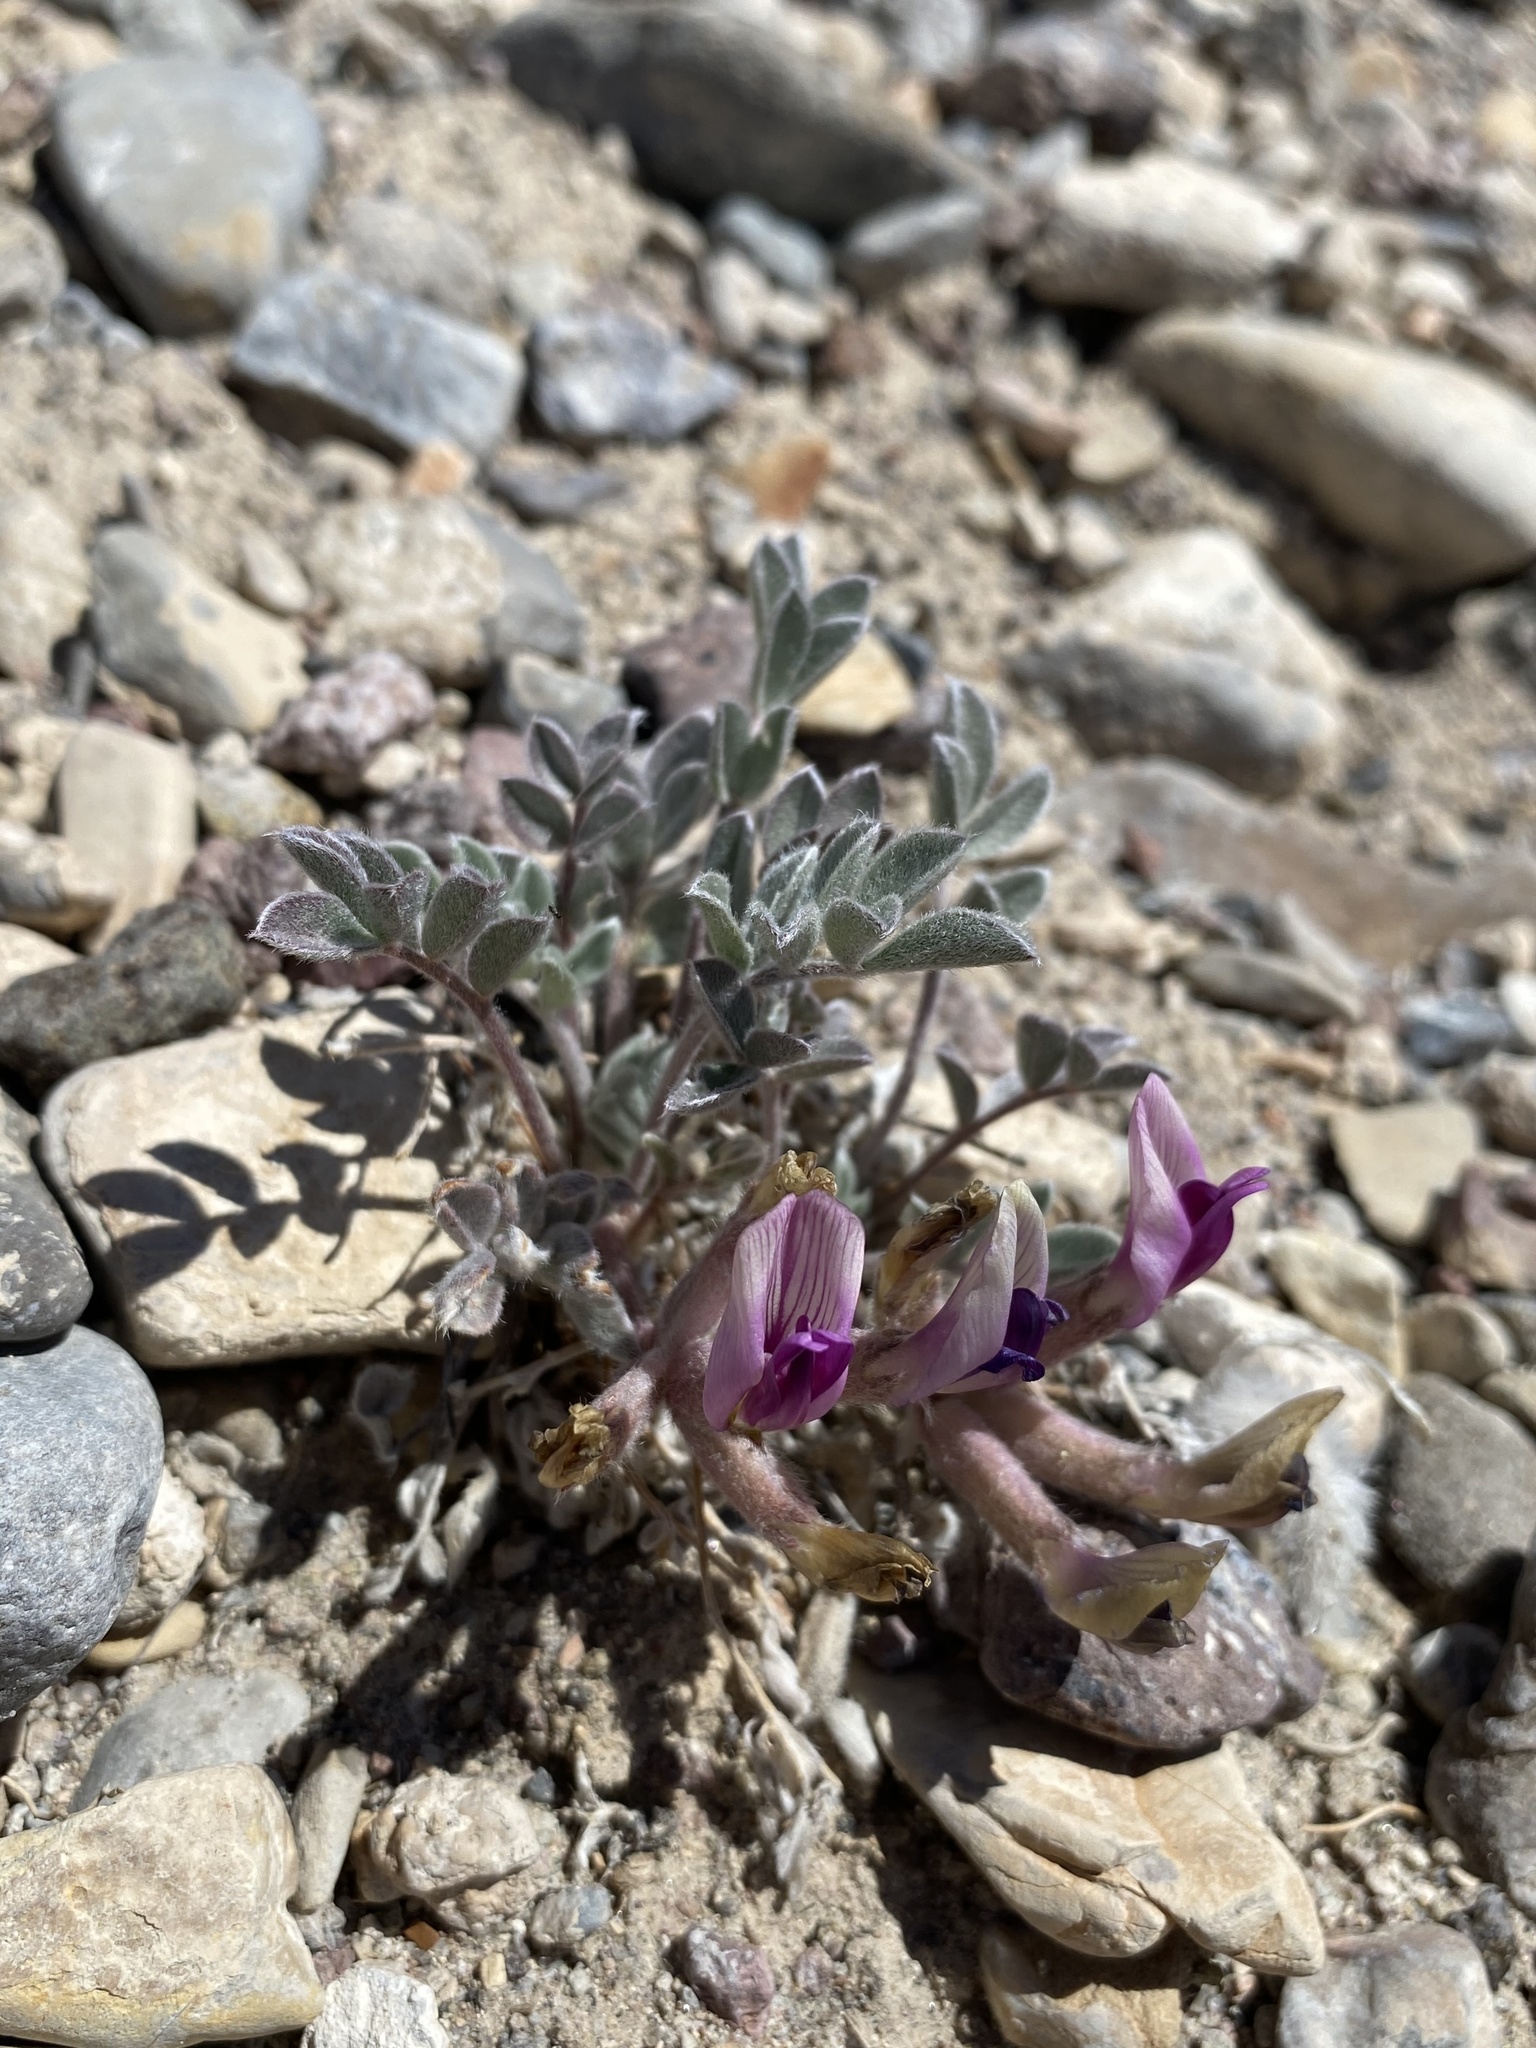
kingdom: Plantae
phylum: Tracheophyta
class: Magnoliopsida
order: Fabales
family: Fabaceae
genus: Astragalus
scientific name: Astragalus newberryi
